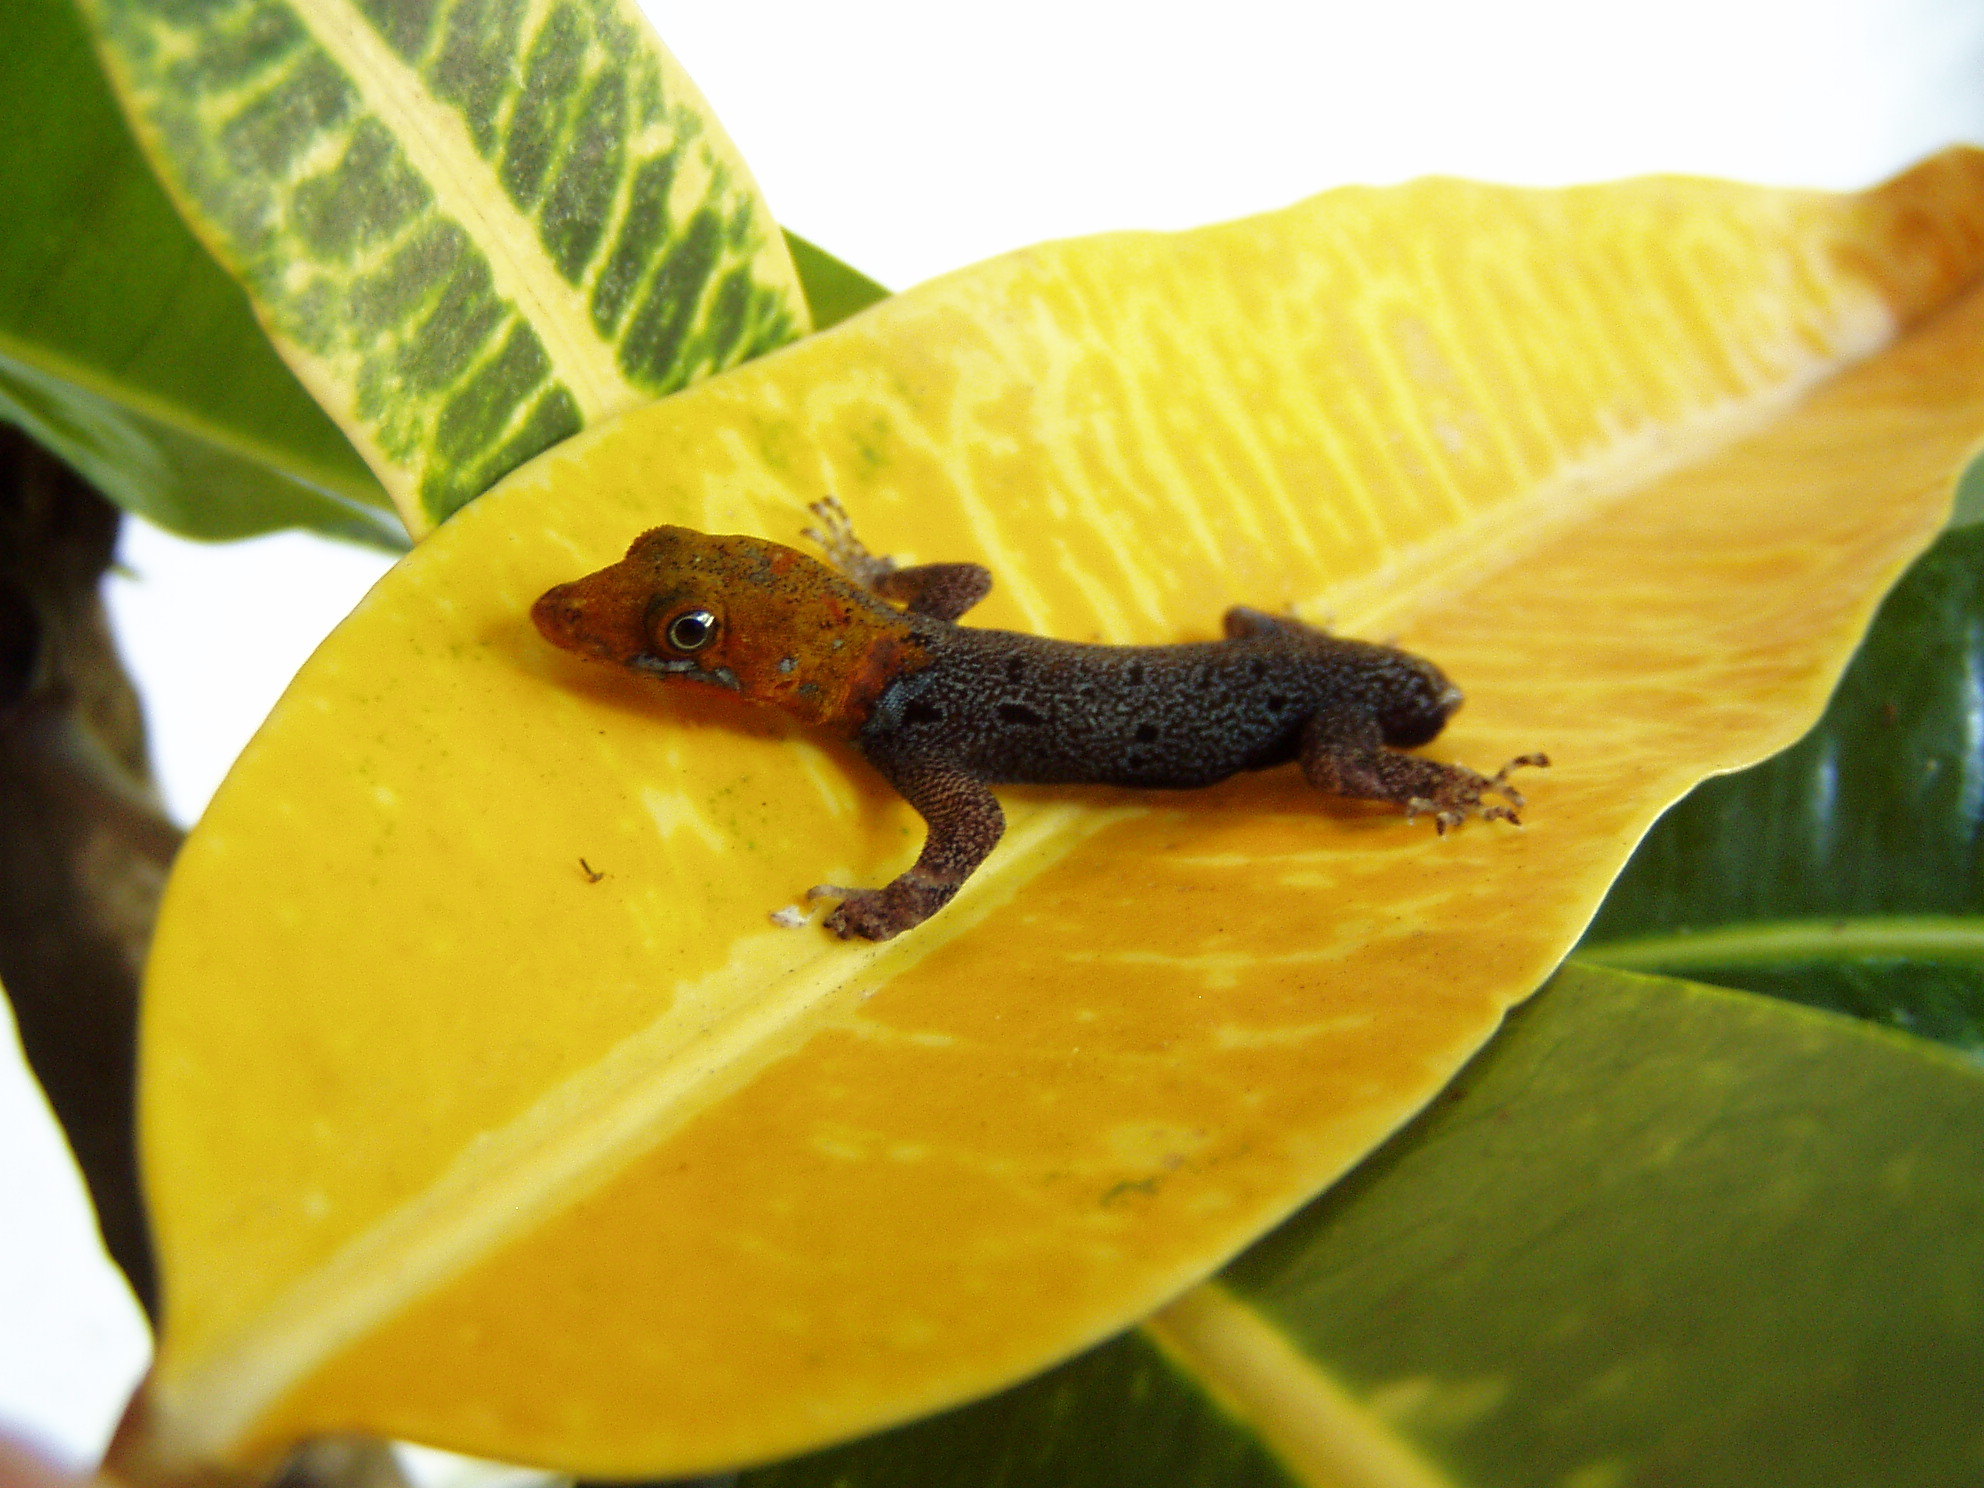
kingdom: Animalia
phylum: Chordata
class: Squamata
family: Sphaerodactylidae
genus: Gonatodes
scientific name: Gonatodes albogularis
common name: Yellow-headed gecko
